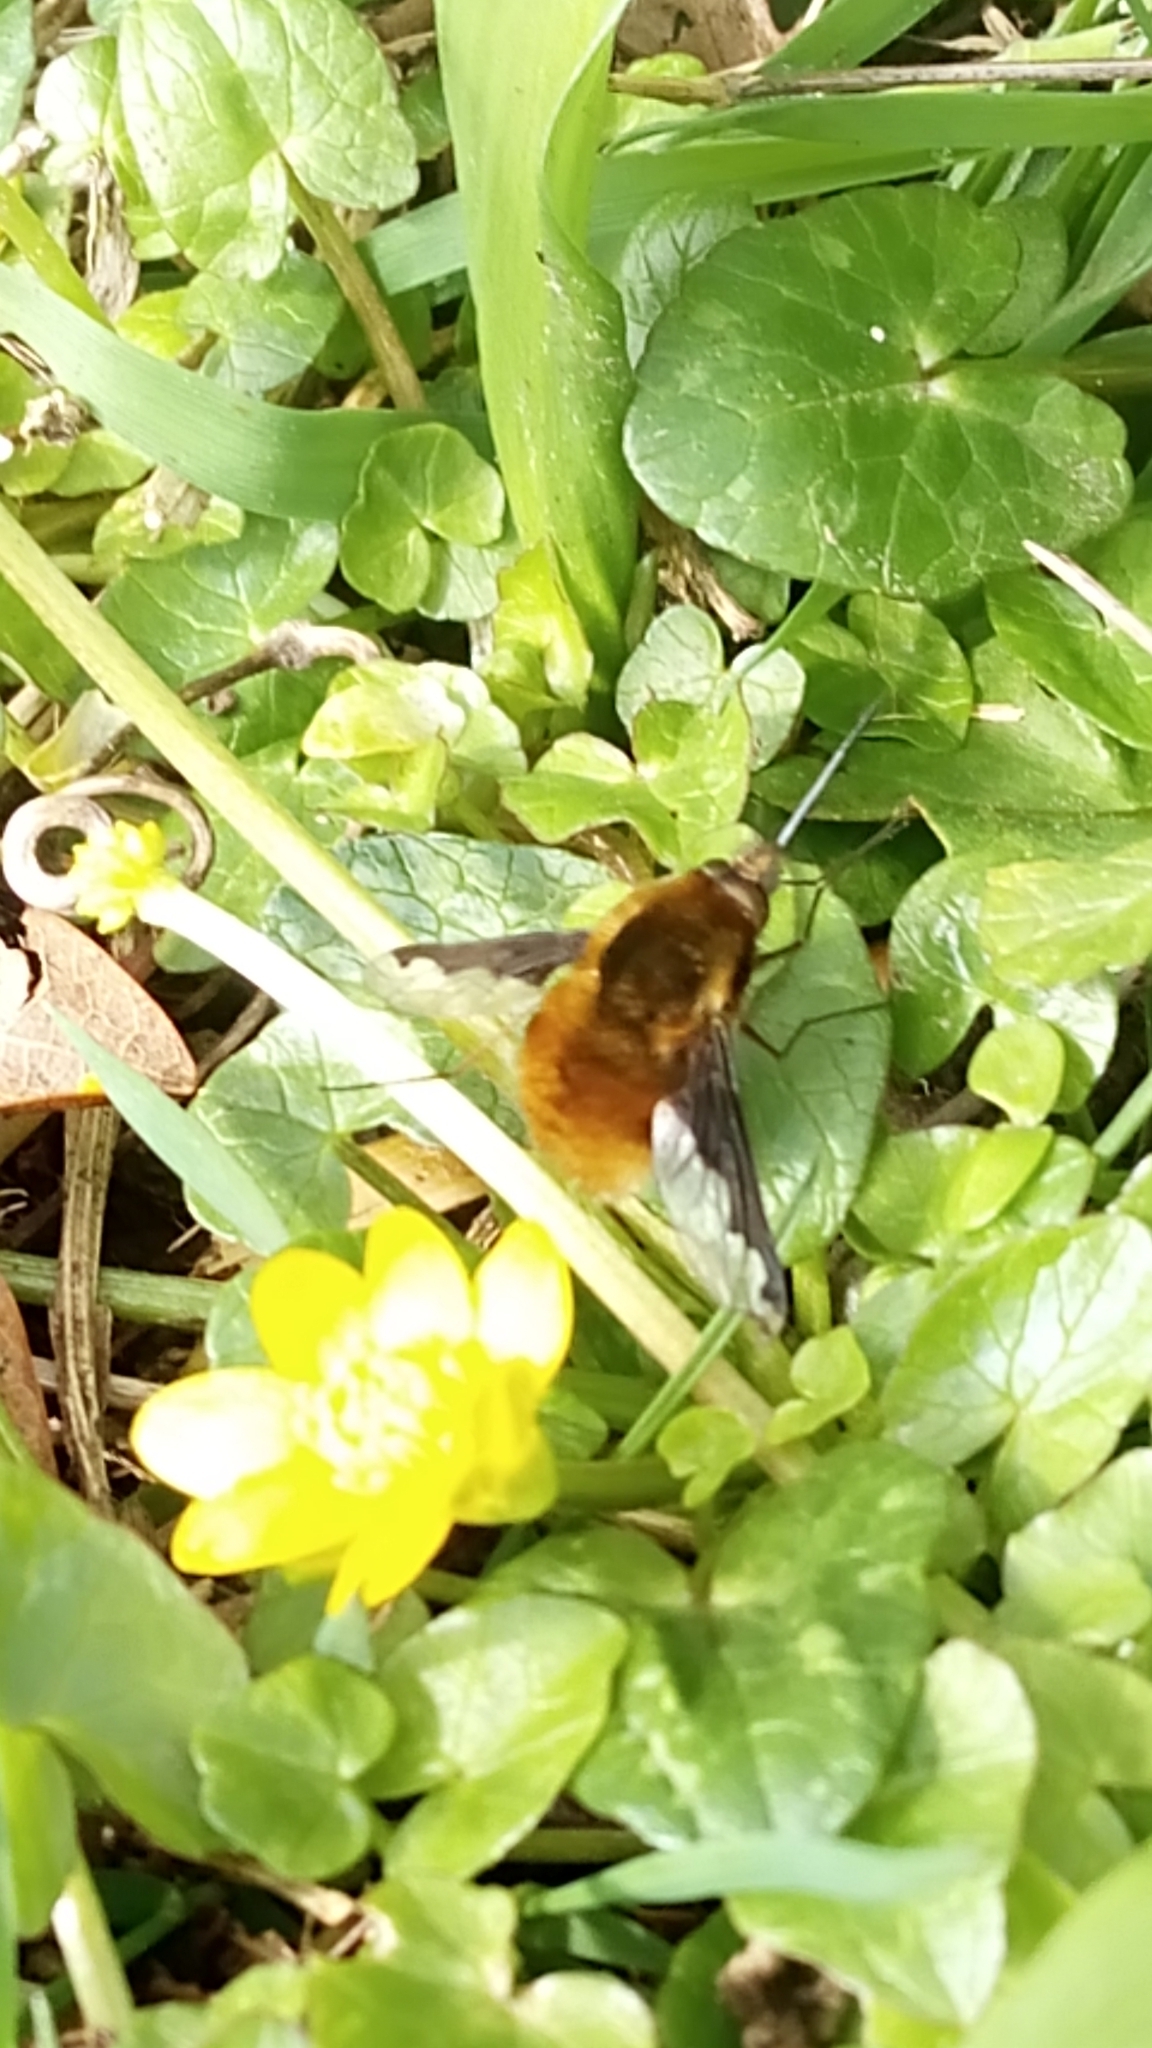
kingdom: Animalia
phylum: Arthropoda
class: Insecta
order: Diptera
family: Bombyliidae
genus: Bombylius
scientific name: Bombylius major
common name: Bee fly
